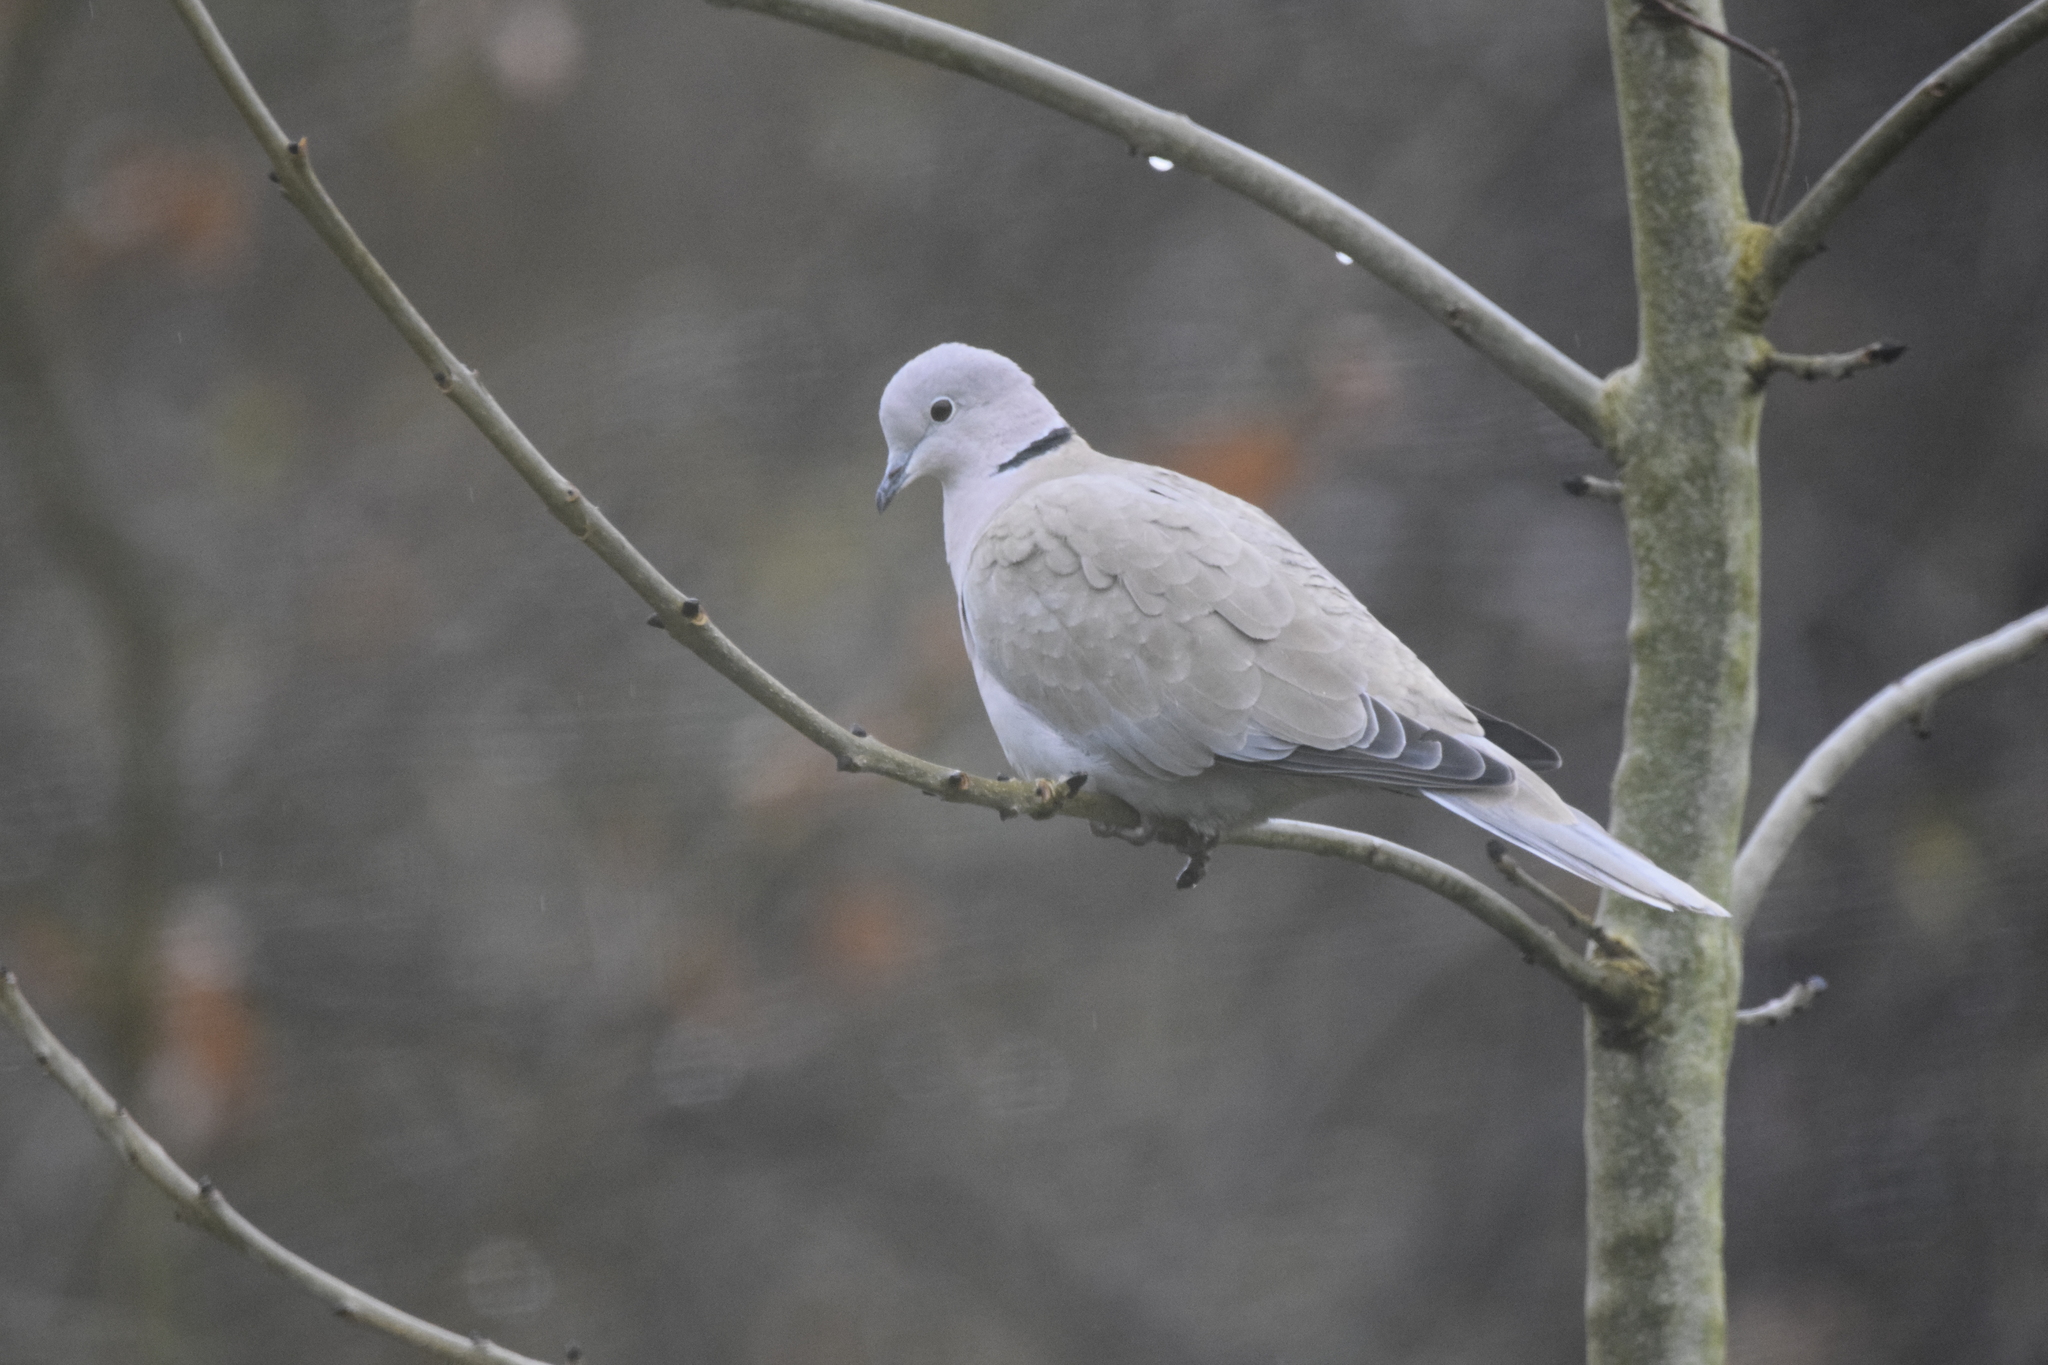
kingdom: Animalia
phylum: Chordata
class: Aves
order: Columbiformes
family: Columbidae
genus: Streptopelia
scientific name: Streptopelia decaocto
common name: Eurasian collared dove
